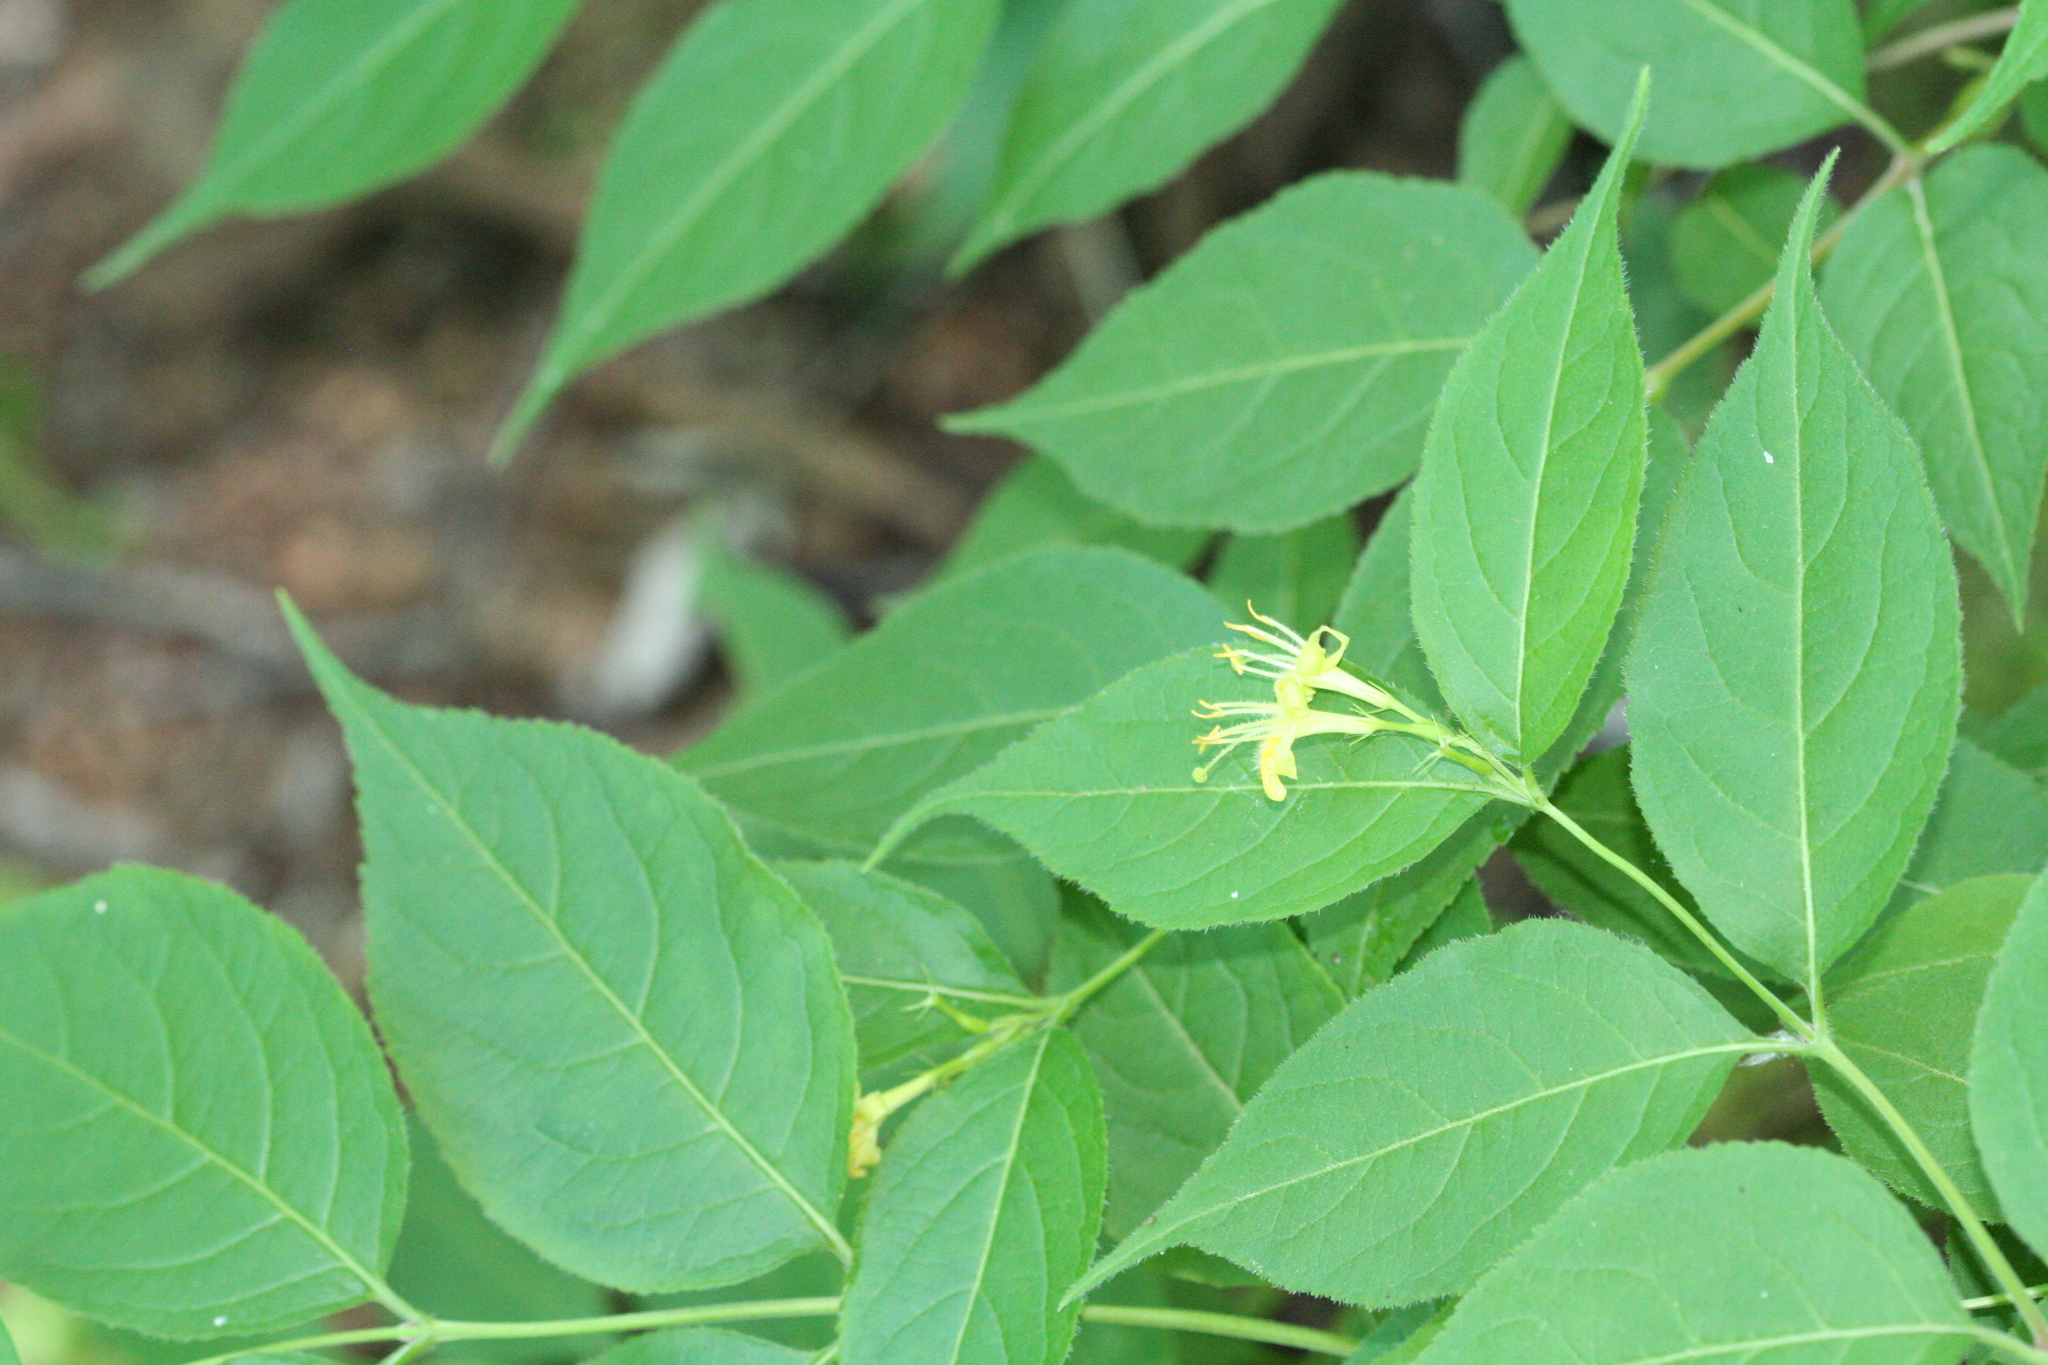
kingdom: Plantae
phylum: Tracheophyta
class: Magnoliopsida
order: Dipsacales
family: Caprifoliaceae
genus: Diervilla
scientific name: Diervilla lonicera
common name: Bush-honeysuckle
